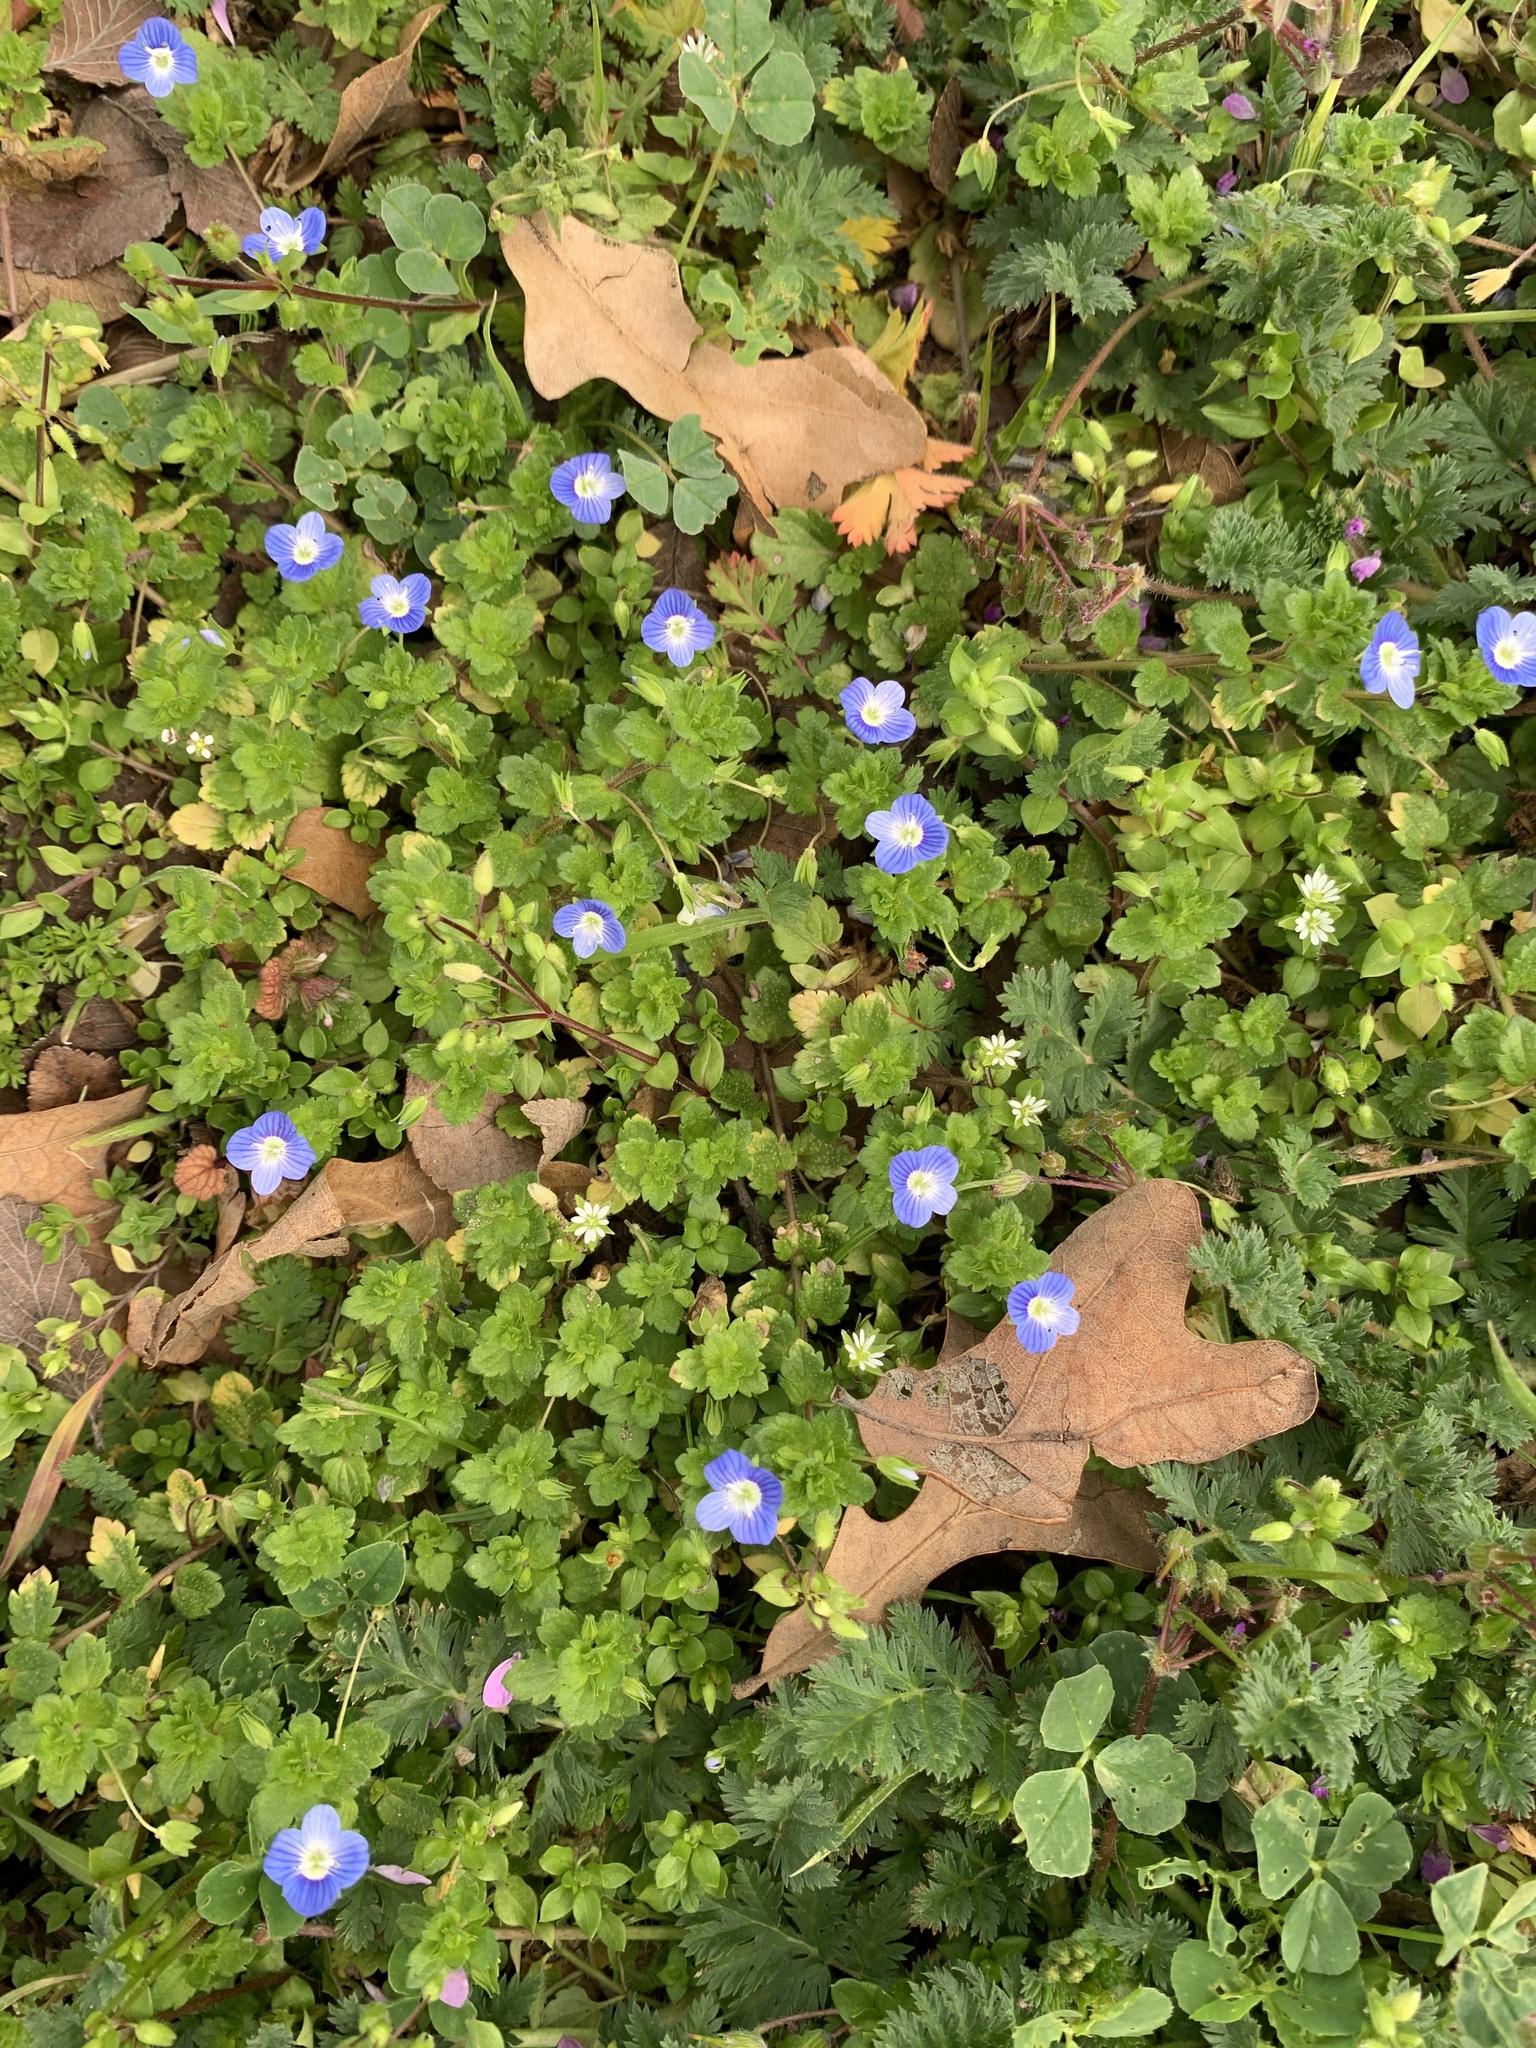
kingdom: Plantae
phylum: Tracheophyta
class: Magnoliopsida
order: Lamiales
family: Plantaginaceae
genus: Veronica
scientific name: Veronica persica
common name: Common field-speedwell
